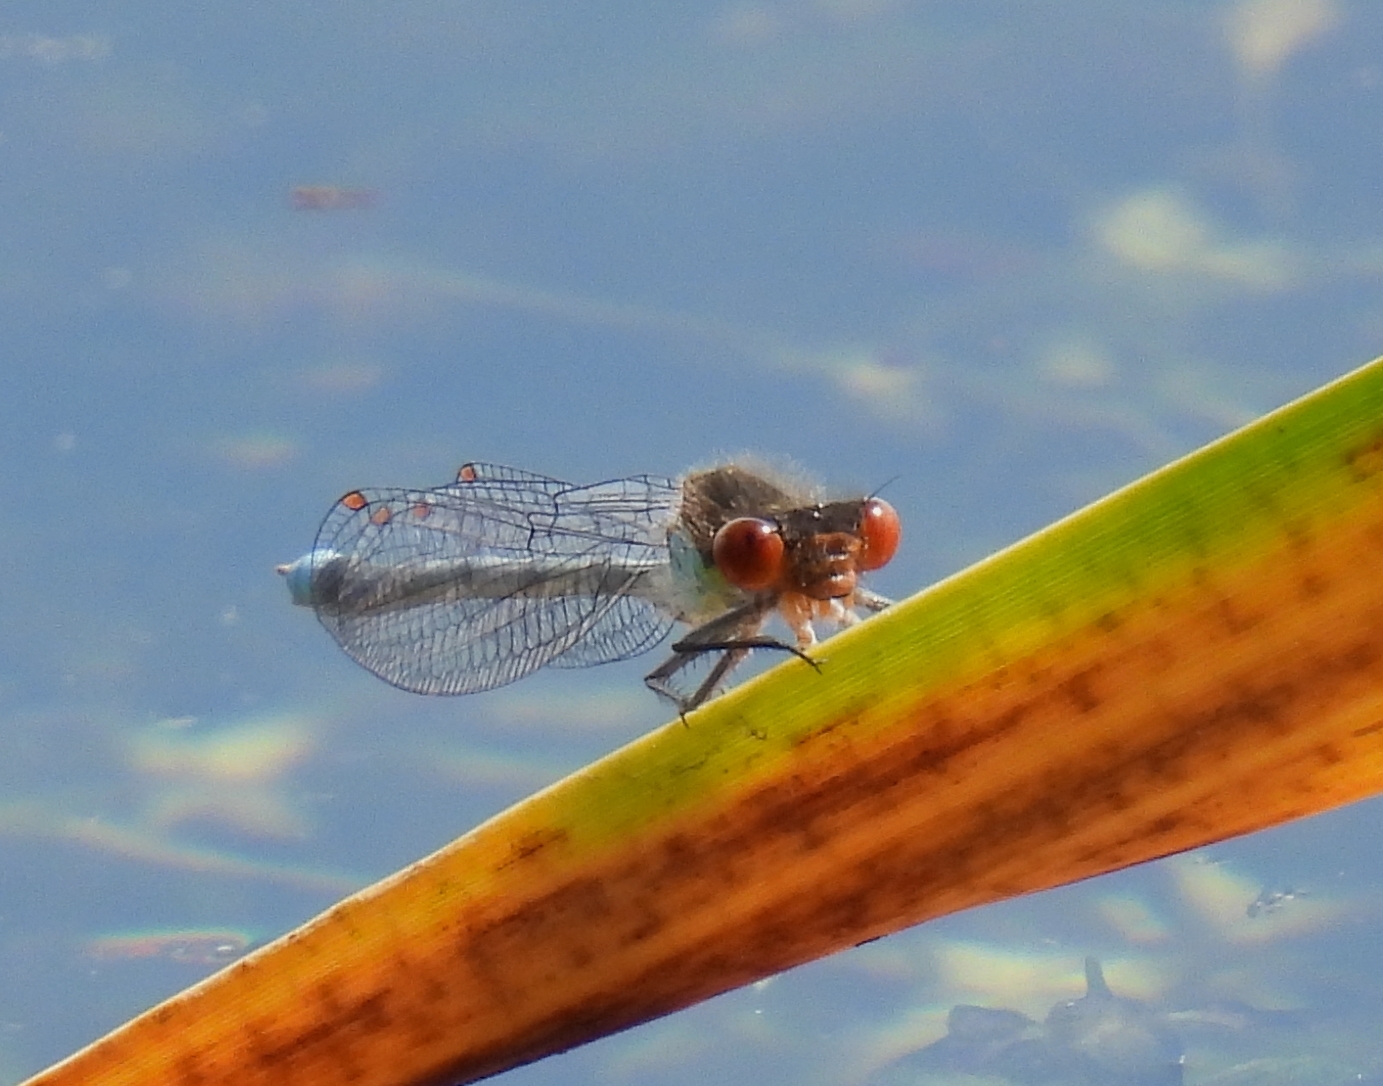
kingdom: Animalia
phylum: Arthropoda
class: Insecta
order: Odonata
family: Coenagrionidae
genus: Erythromma
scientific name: Erythromma najas
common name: Red-eyed damselfly
